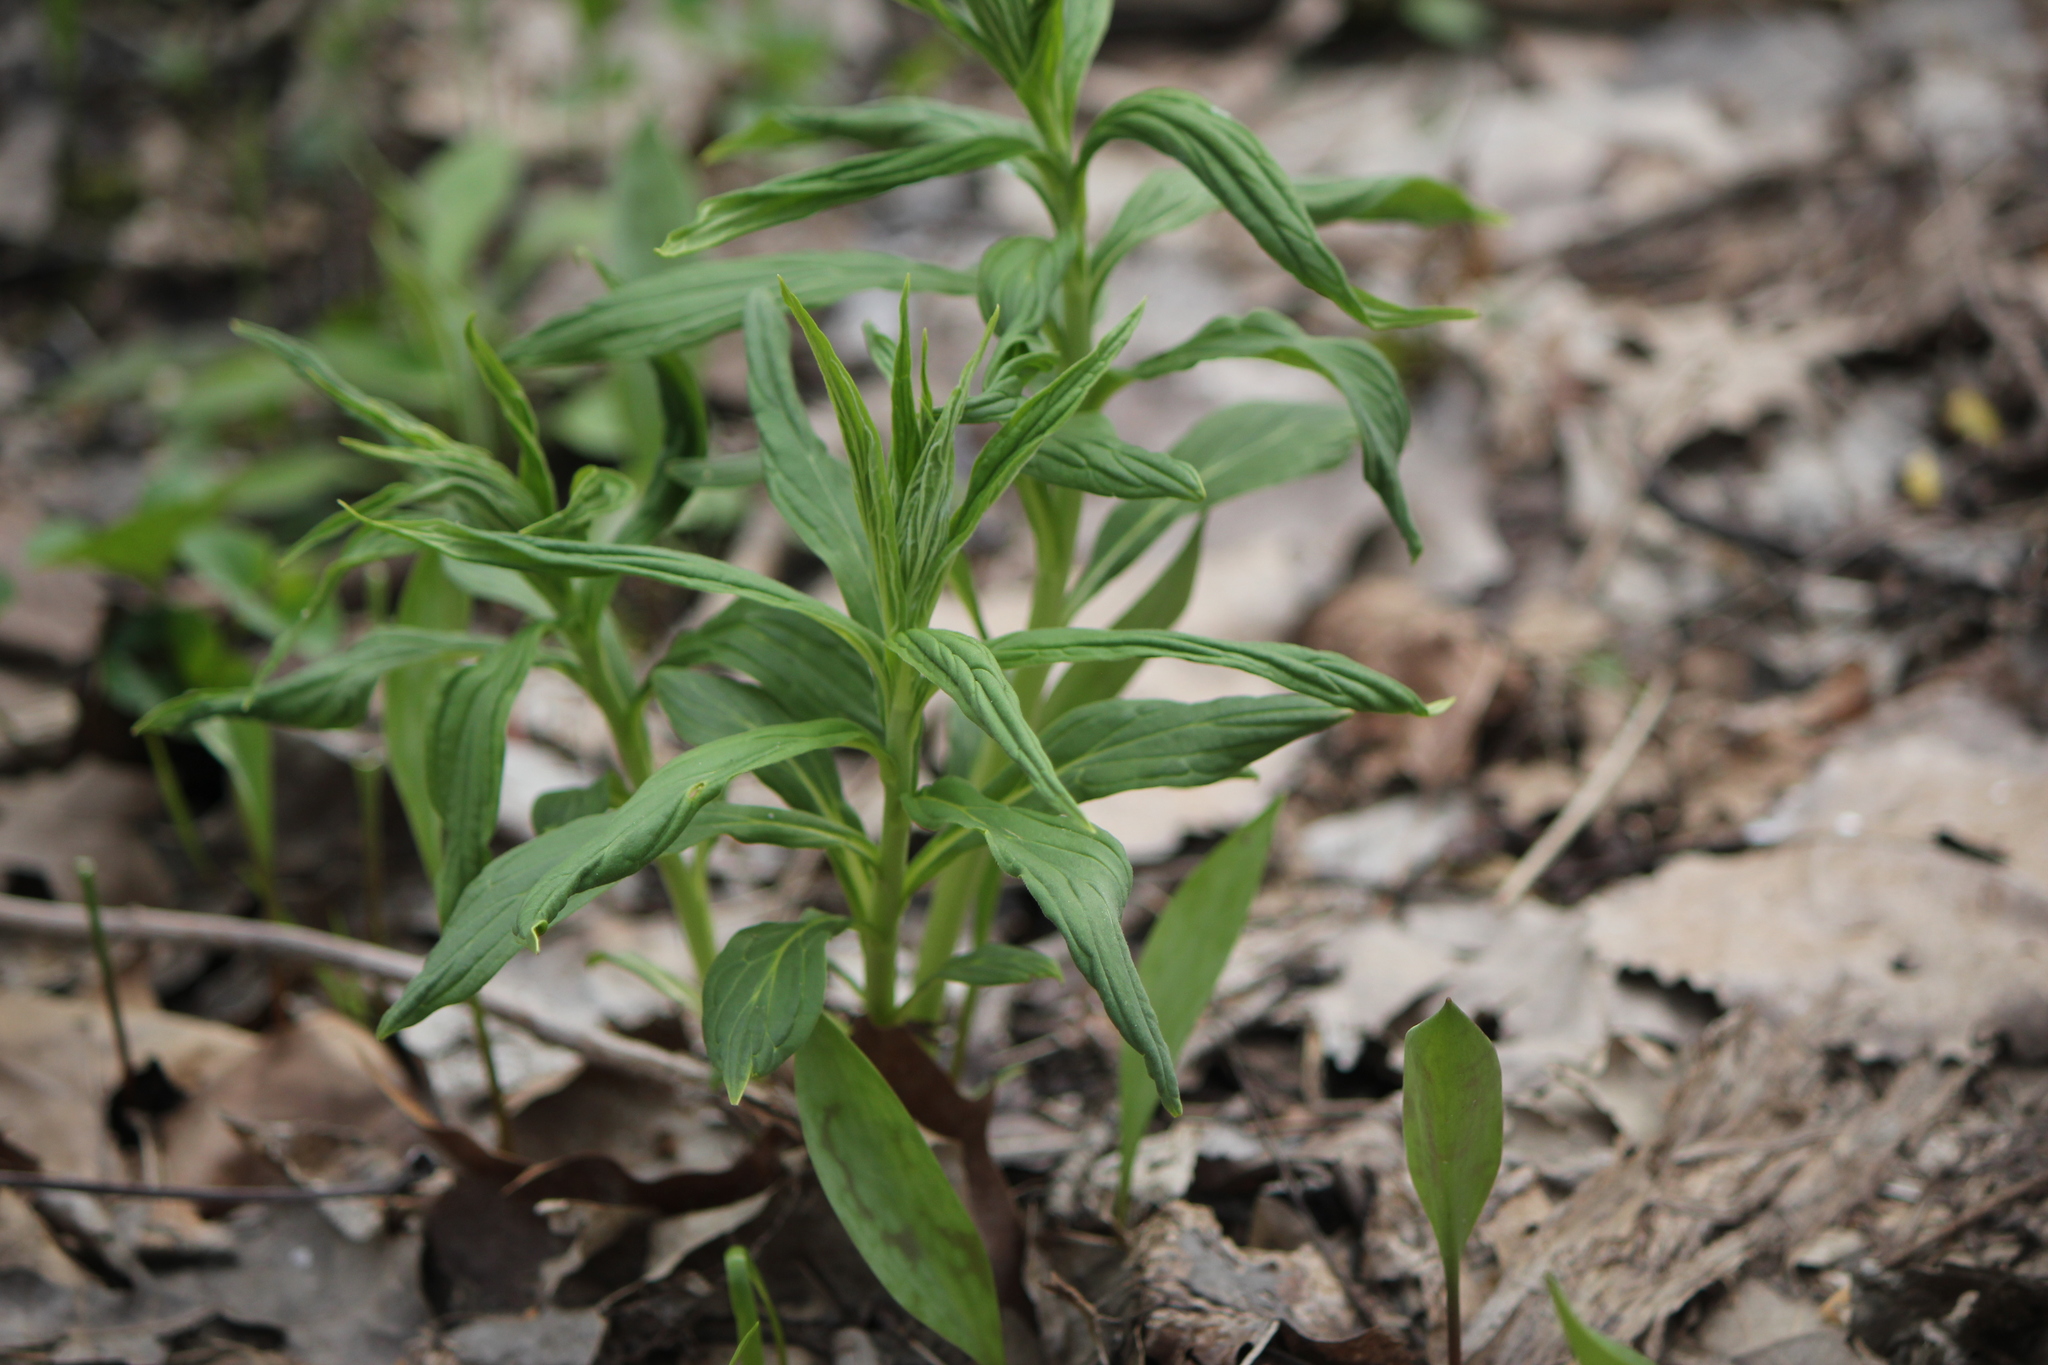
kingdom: Plantae
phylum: Tracheophyta
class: Magnoliopsida
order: Boraginales
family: Boraginaceae
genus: Lithospermum
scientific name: Lithospermum latifolium
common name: American gromwell
